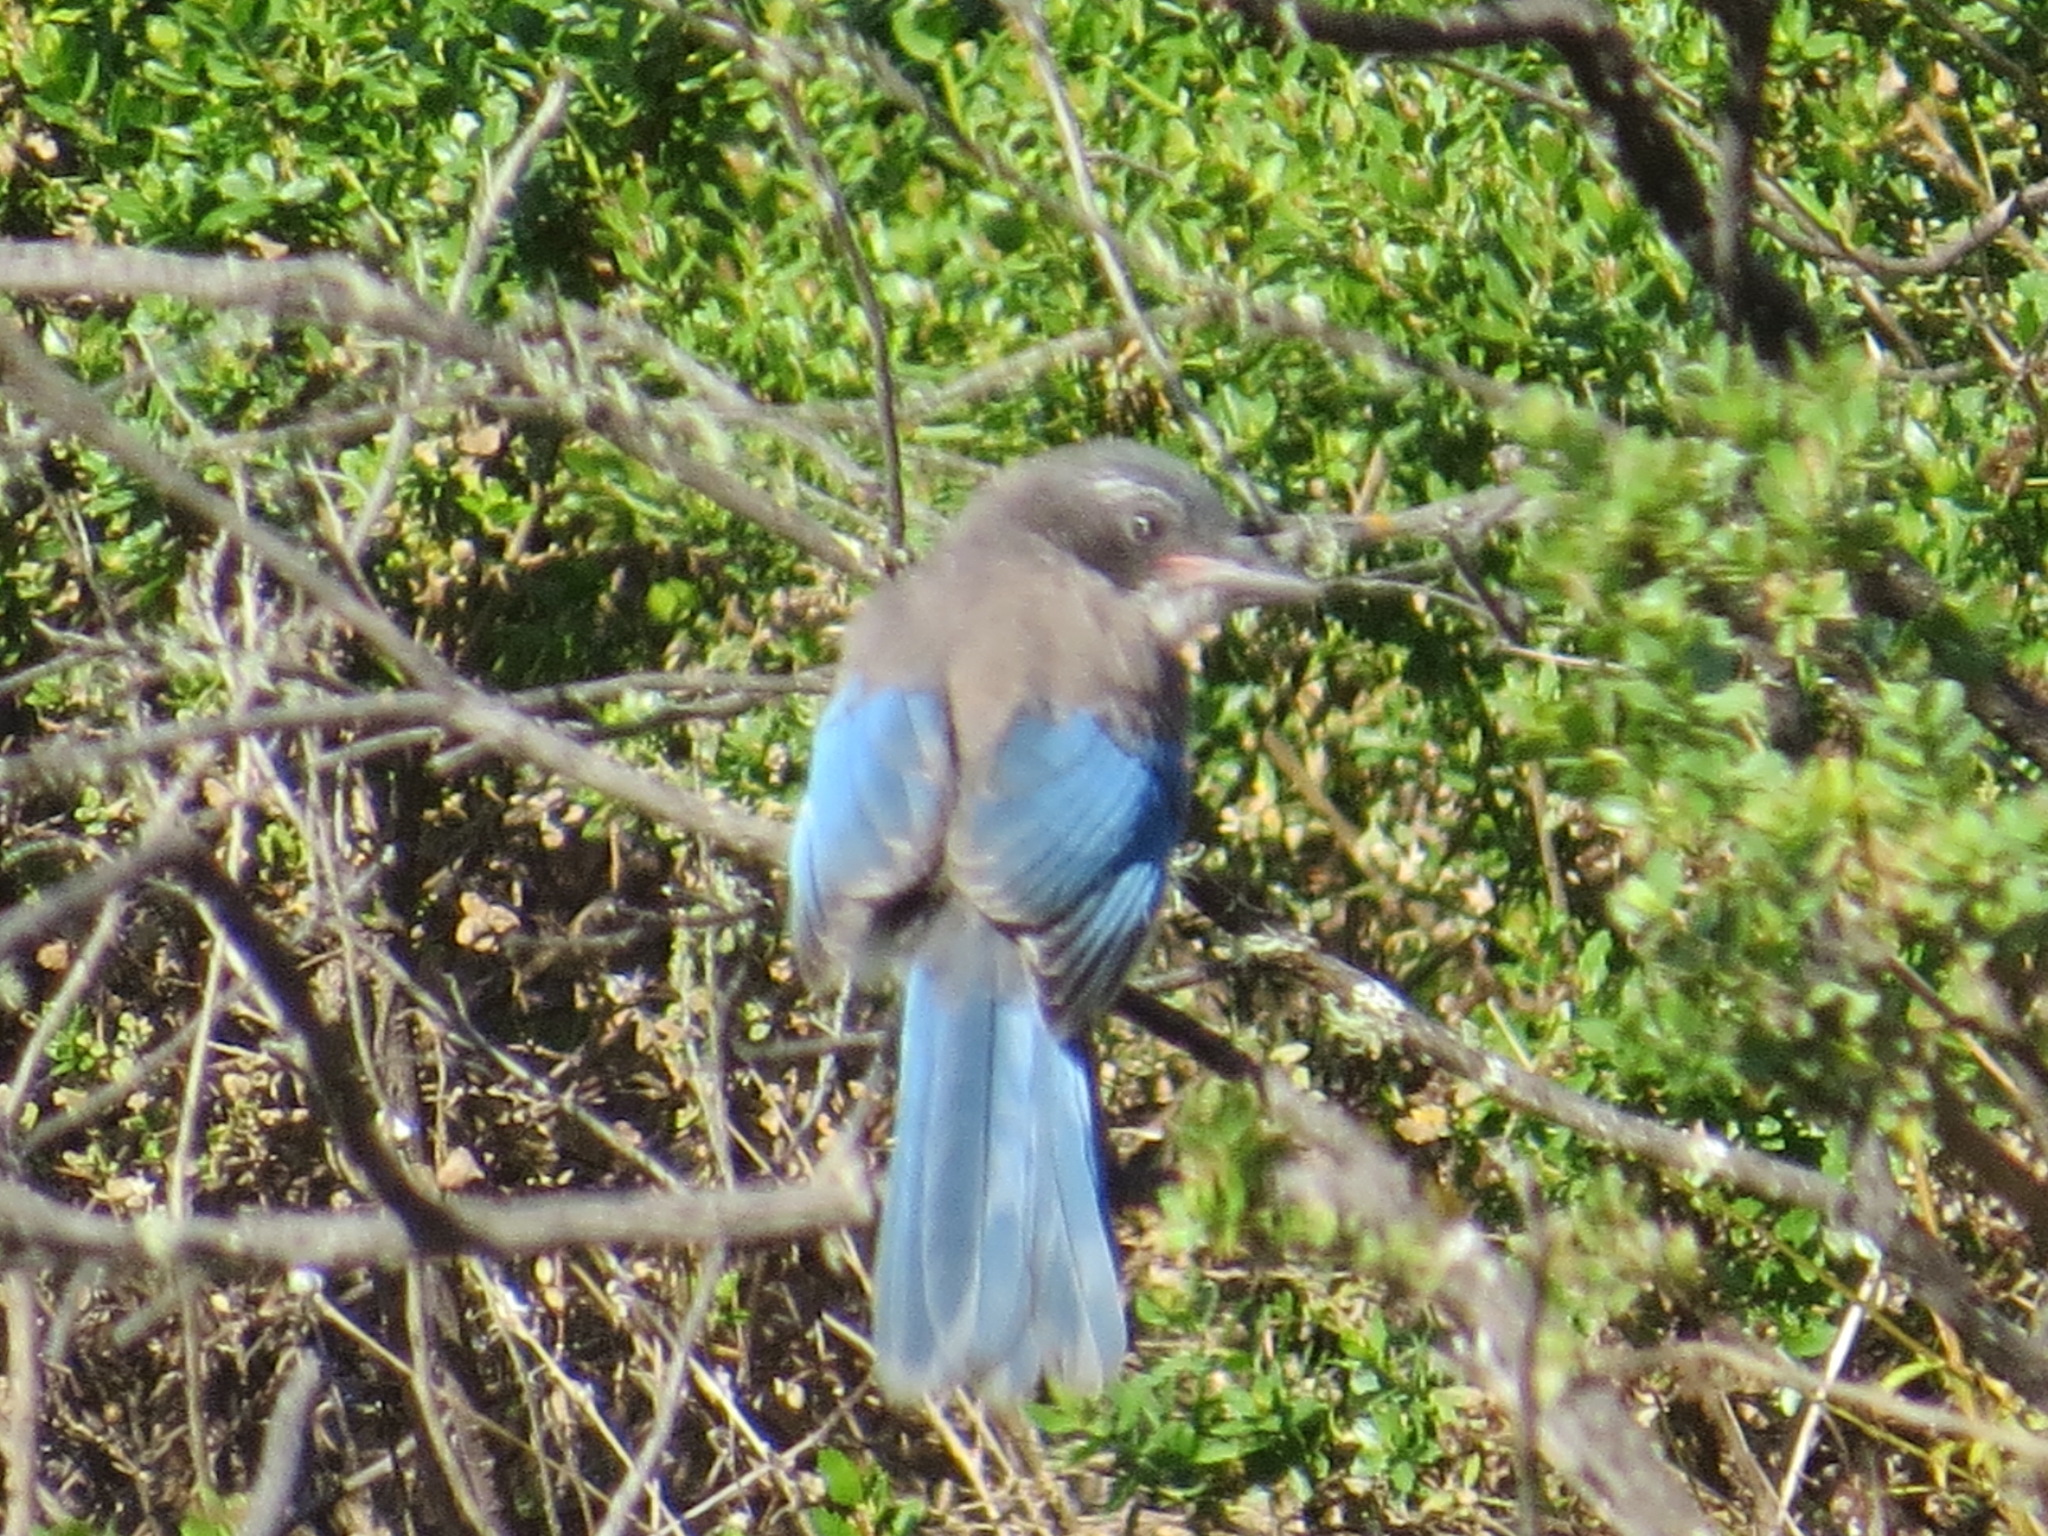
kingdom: Animalia
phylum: Chordata
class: Aves
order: Passeriformes
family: Corvidae
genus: Aphelocoma
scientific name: Aphelocoma californica
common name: California scrub-jay
